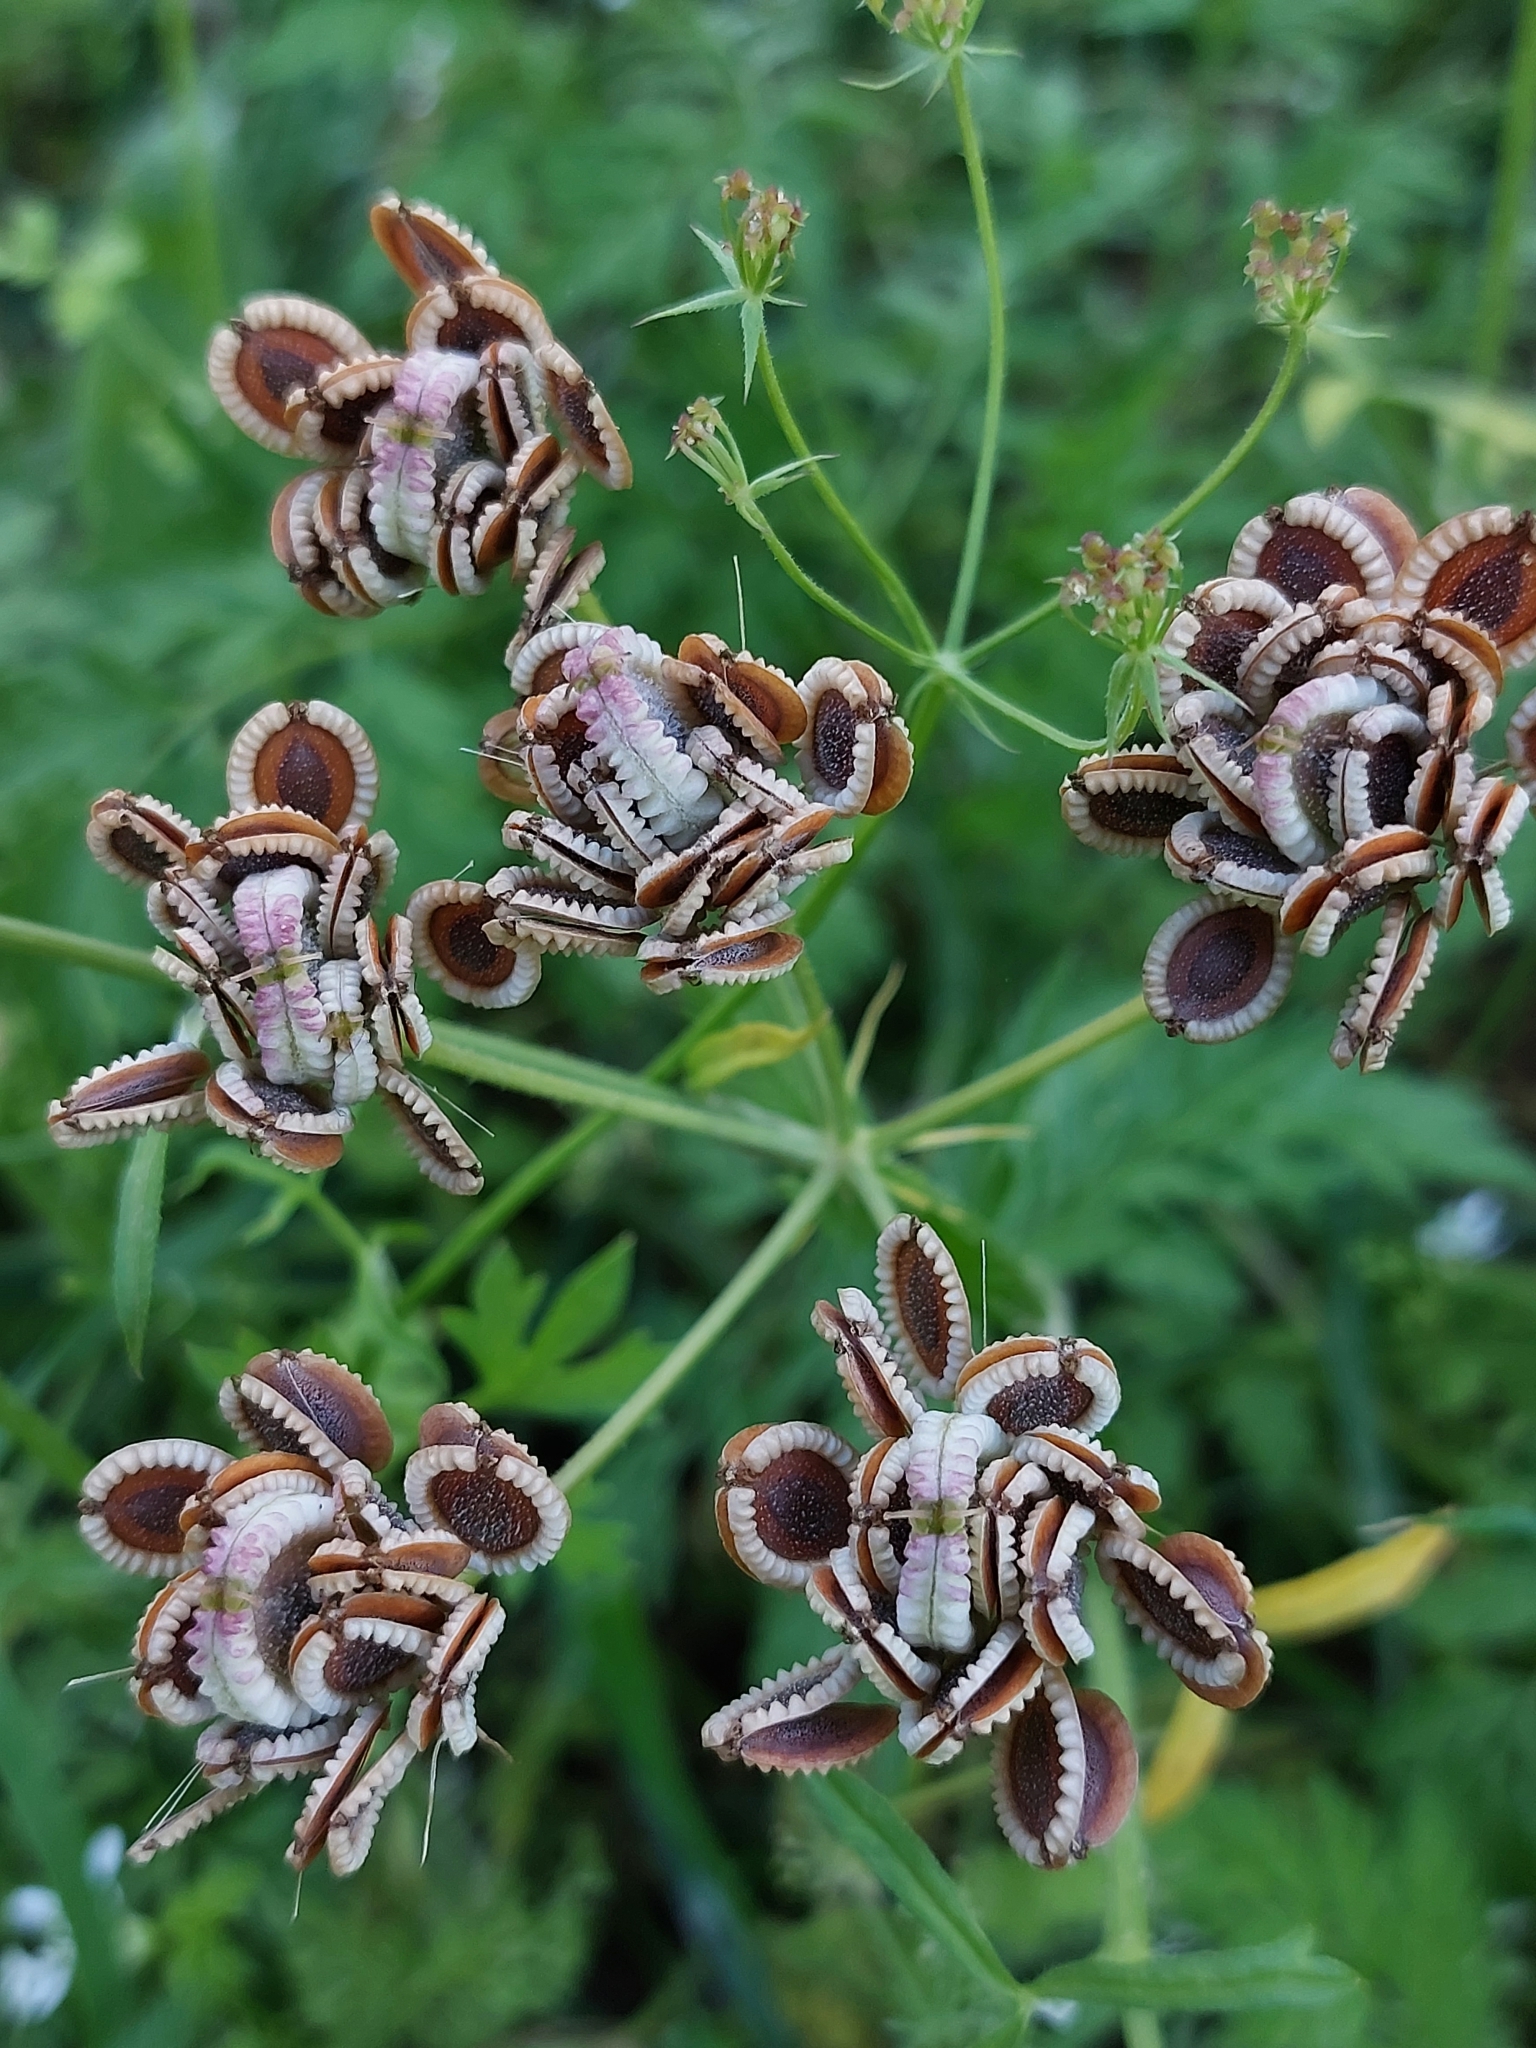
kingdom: Plantae
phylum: Tracheophyta
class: Magnoliopsida
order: Apiales
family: Apiaceae
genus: Tordylium
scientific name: Tordylium apulum
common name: Mediterranean hartwort
